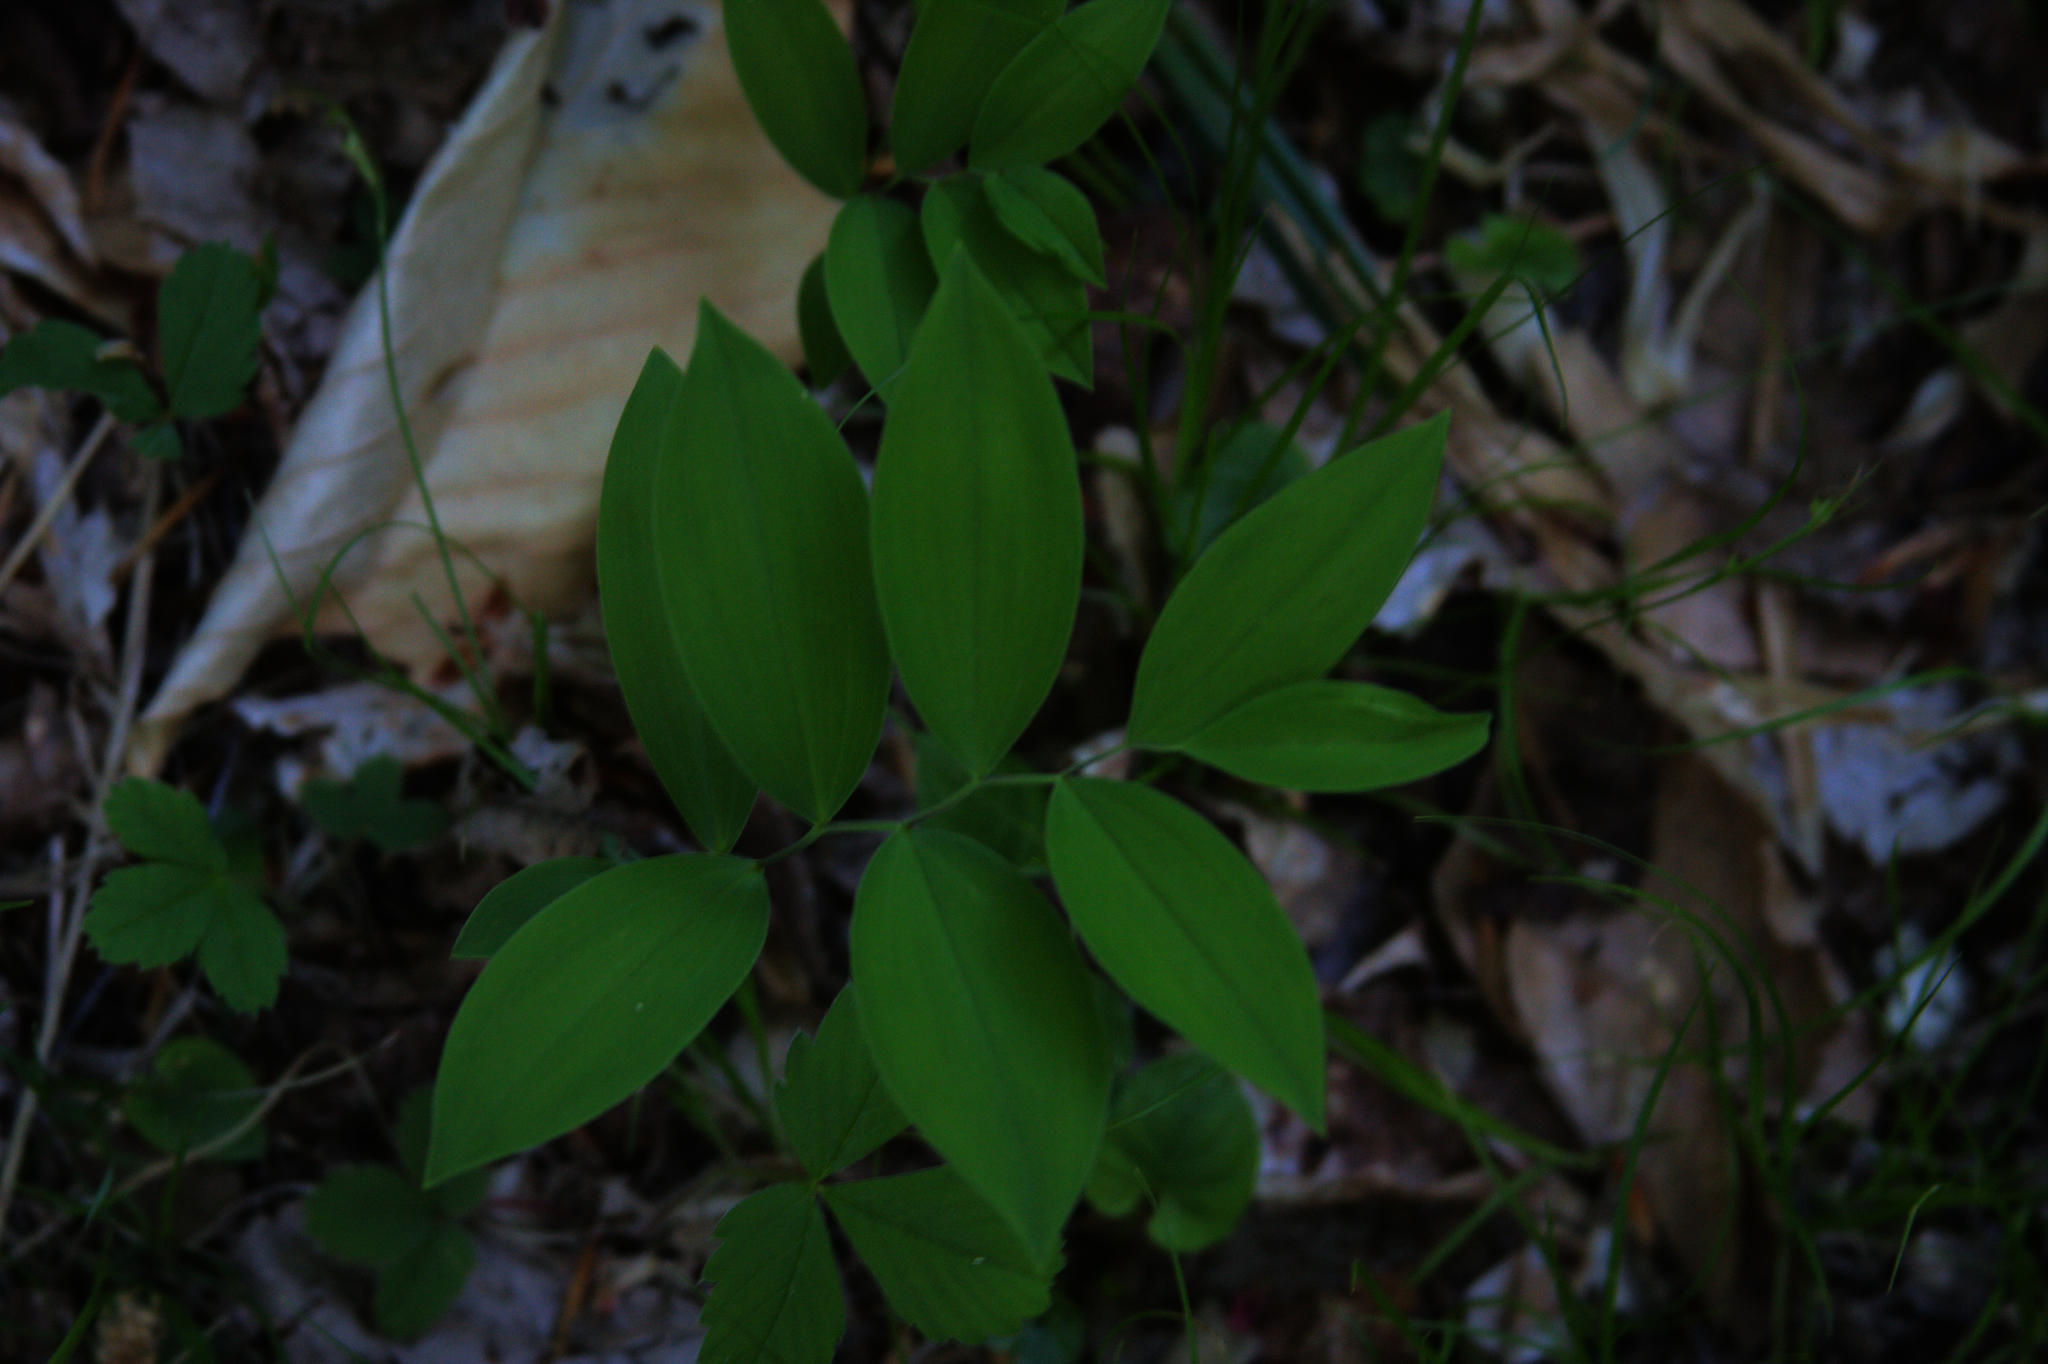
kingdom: Plantae
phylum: Tracheophyta
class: Liliopsida
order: Liliales
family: Colchicaceae
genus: Uvularia
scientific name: Uvularia sessilifolia
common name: Straw-lily
